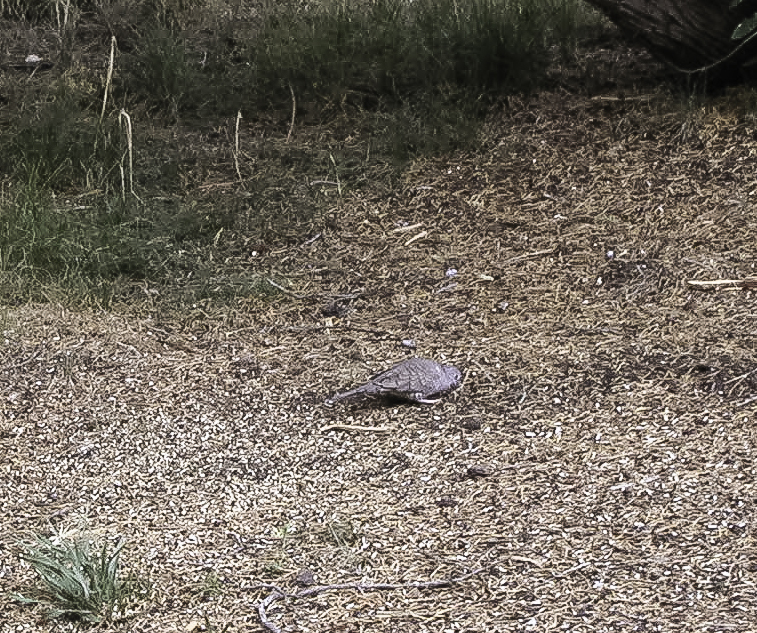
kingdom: Animalia
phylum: Chordata
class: Aves
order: Columbiformes
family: Columbidae
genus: Columbina
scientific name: Columbina inca
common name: Inca dove
